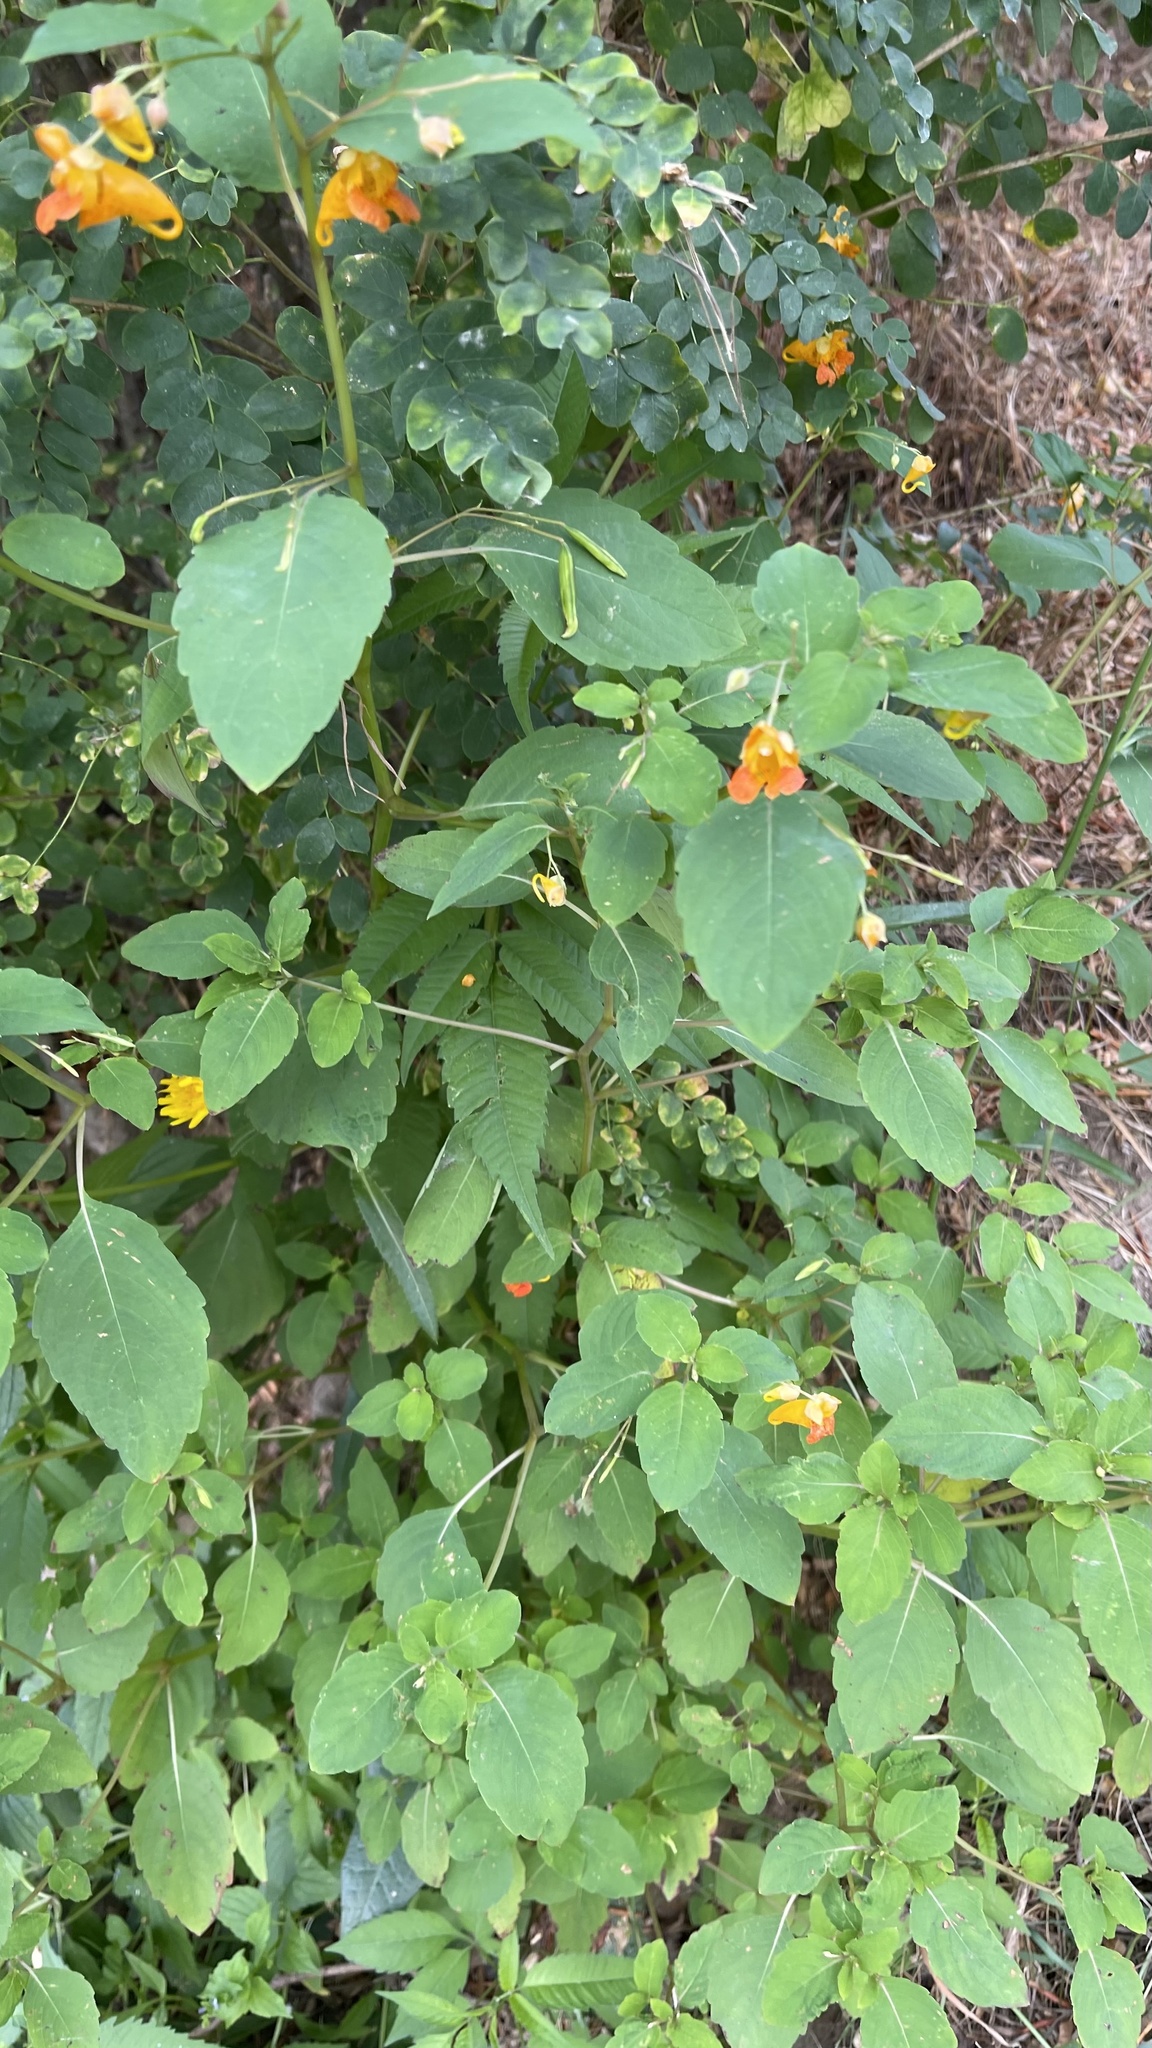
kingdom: Plantae
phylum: Tracheophyta
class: Magnoliopsida
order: Ericales
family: Balsaminaceae
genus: Impatiens
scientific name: Impatiens capensis
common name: Orange balsam
